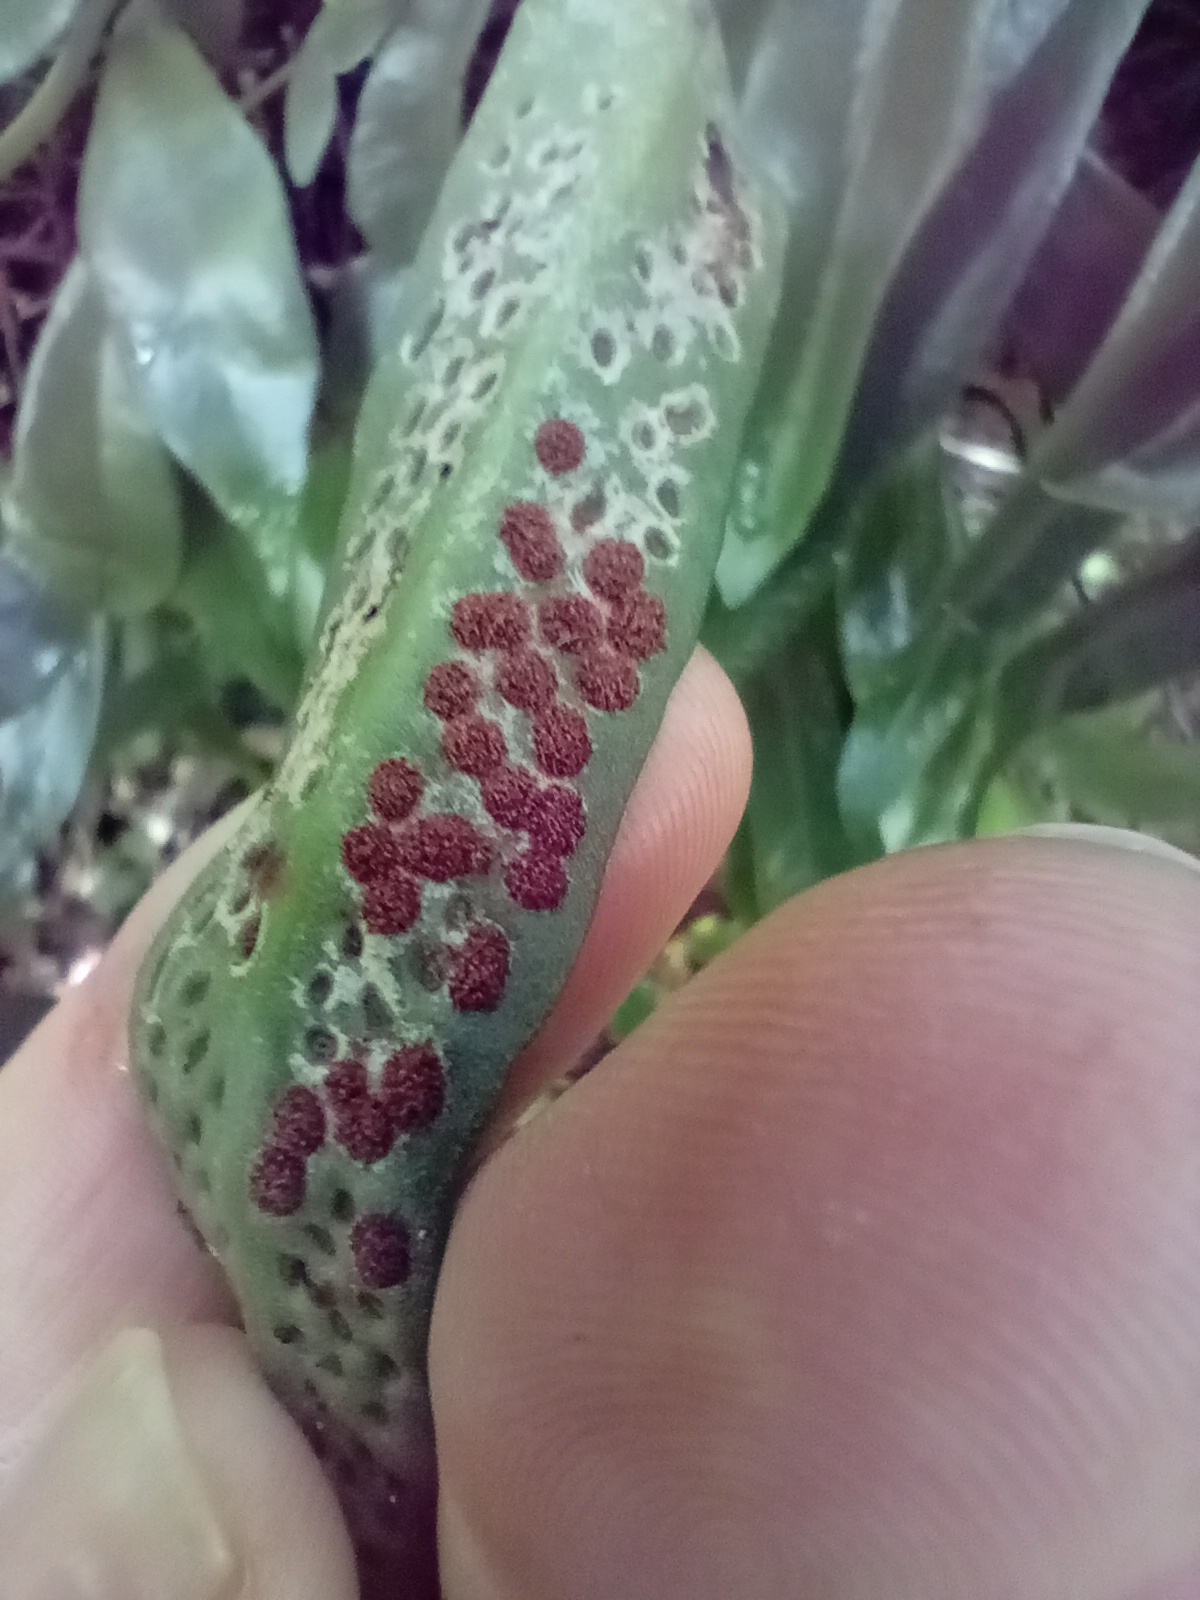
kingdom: Plantae
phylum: Tracheophyta
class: Polypodiopsida
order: Polypodiales
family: Polypodiaceae
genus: Pyrrosia
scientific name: Pyrrosia eleagnifolia
